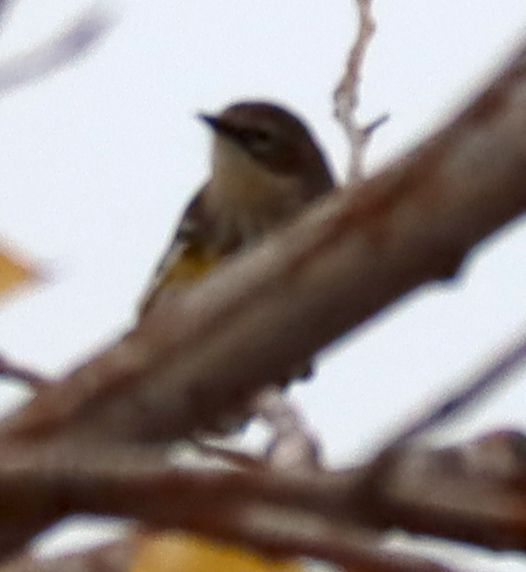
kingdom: Animalia
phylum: Chordata
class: Aves
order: Passeriformes
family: Parulidae
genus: Setophaga
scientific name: Setophaga coronata
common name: Myrtle warbler
